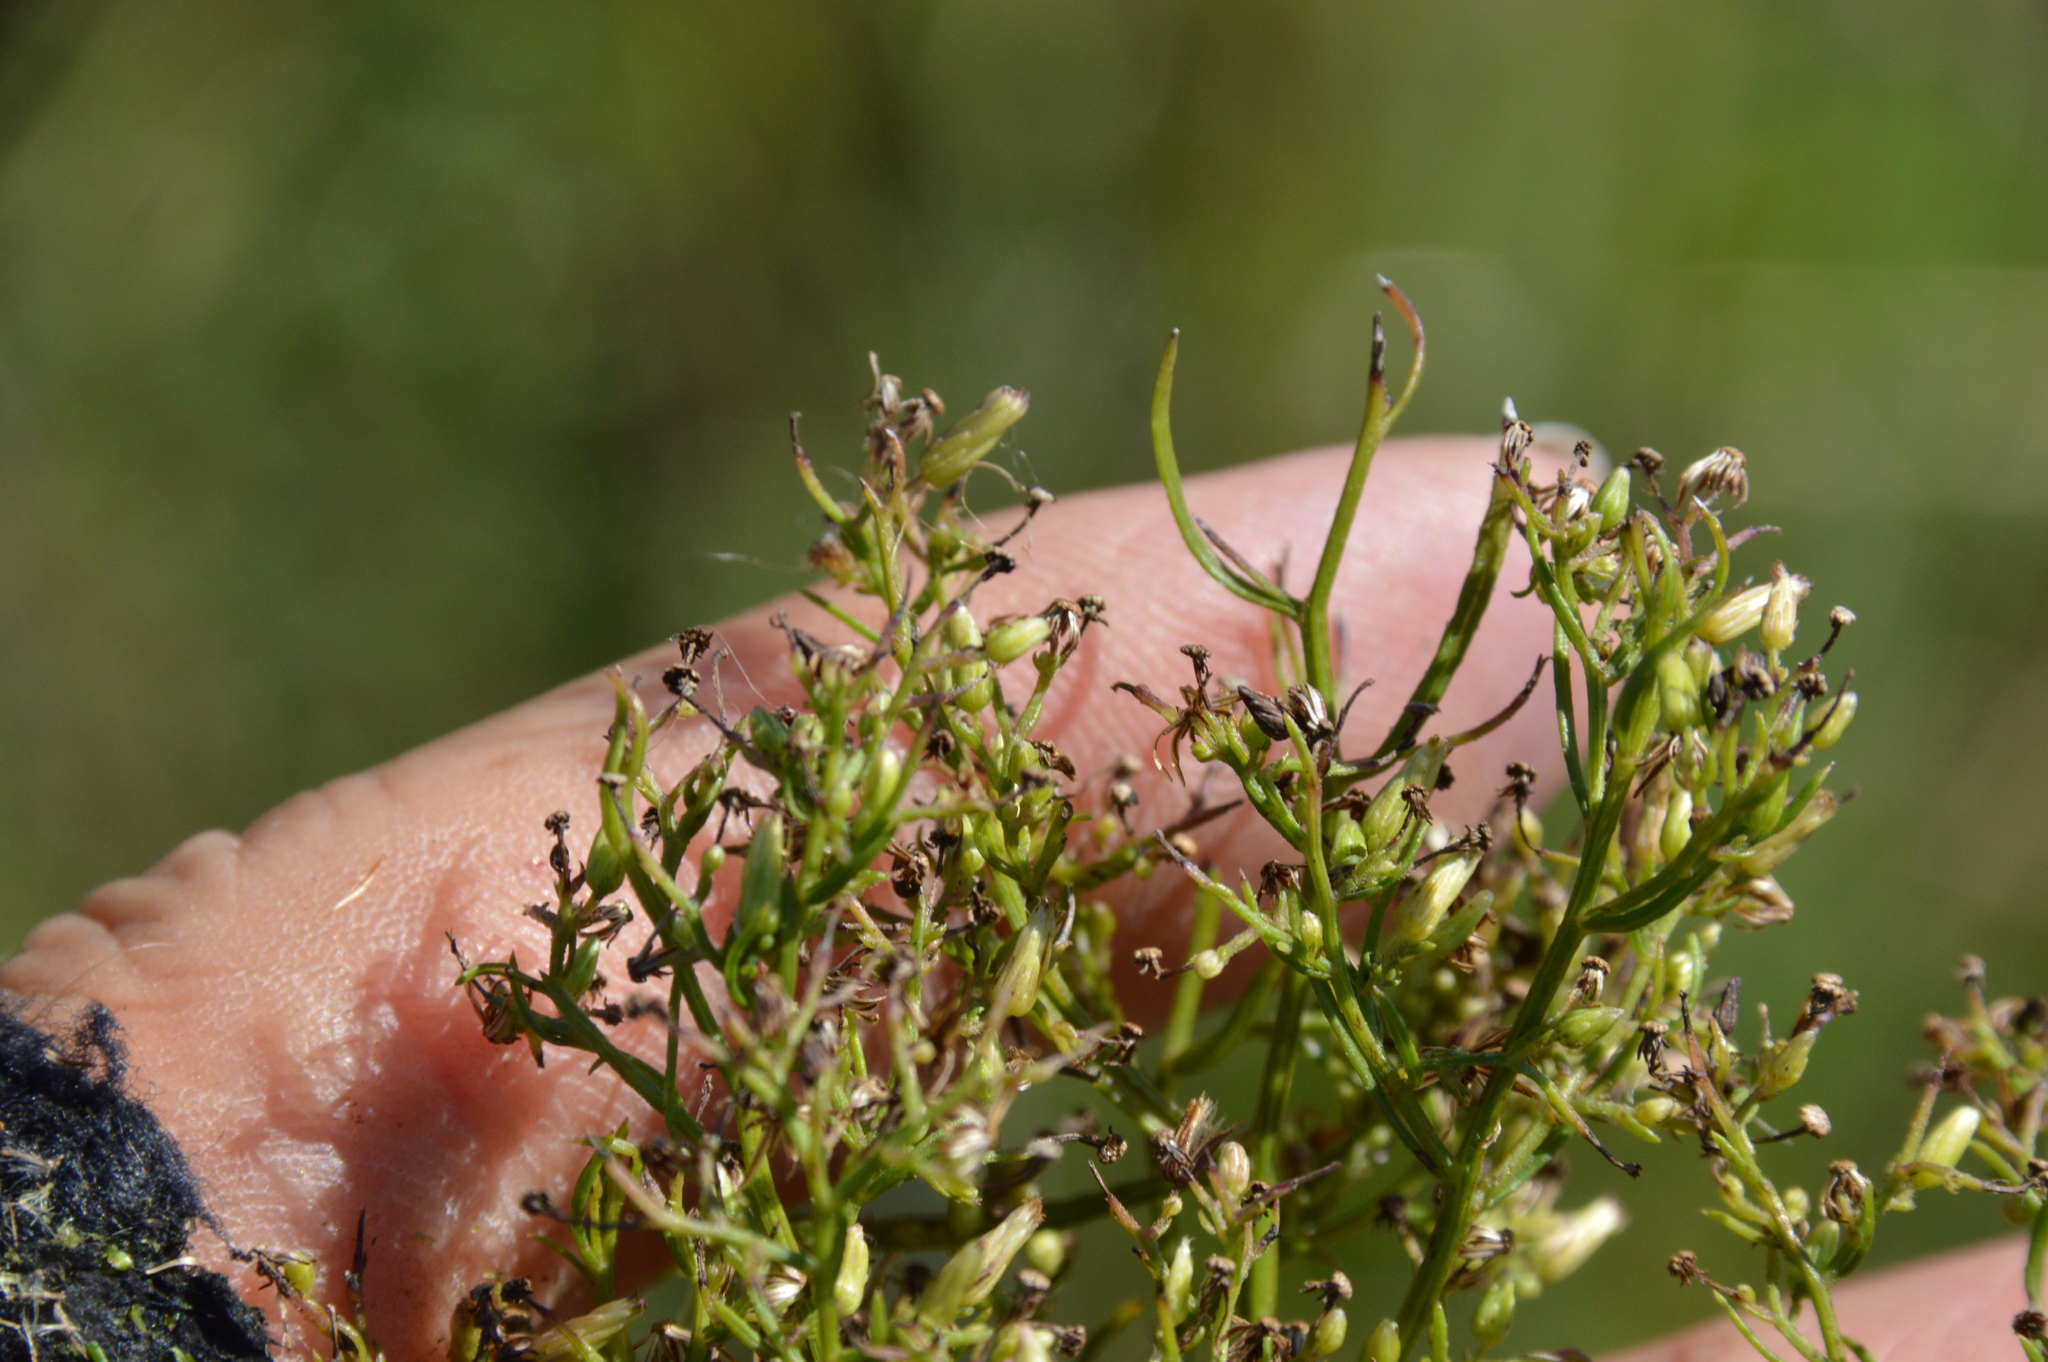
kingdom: Plantae
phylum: Tracheophyta
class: Magnoliopsida
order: Asterales
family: Asteraceae
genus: Erigeron
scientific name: Erigeron canadensis
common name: Canadian fleabane
